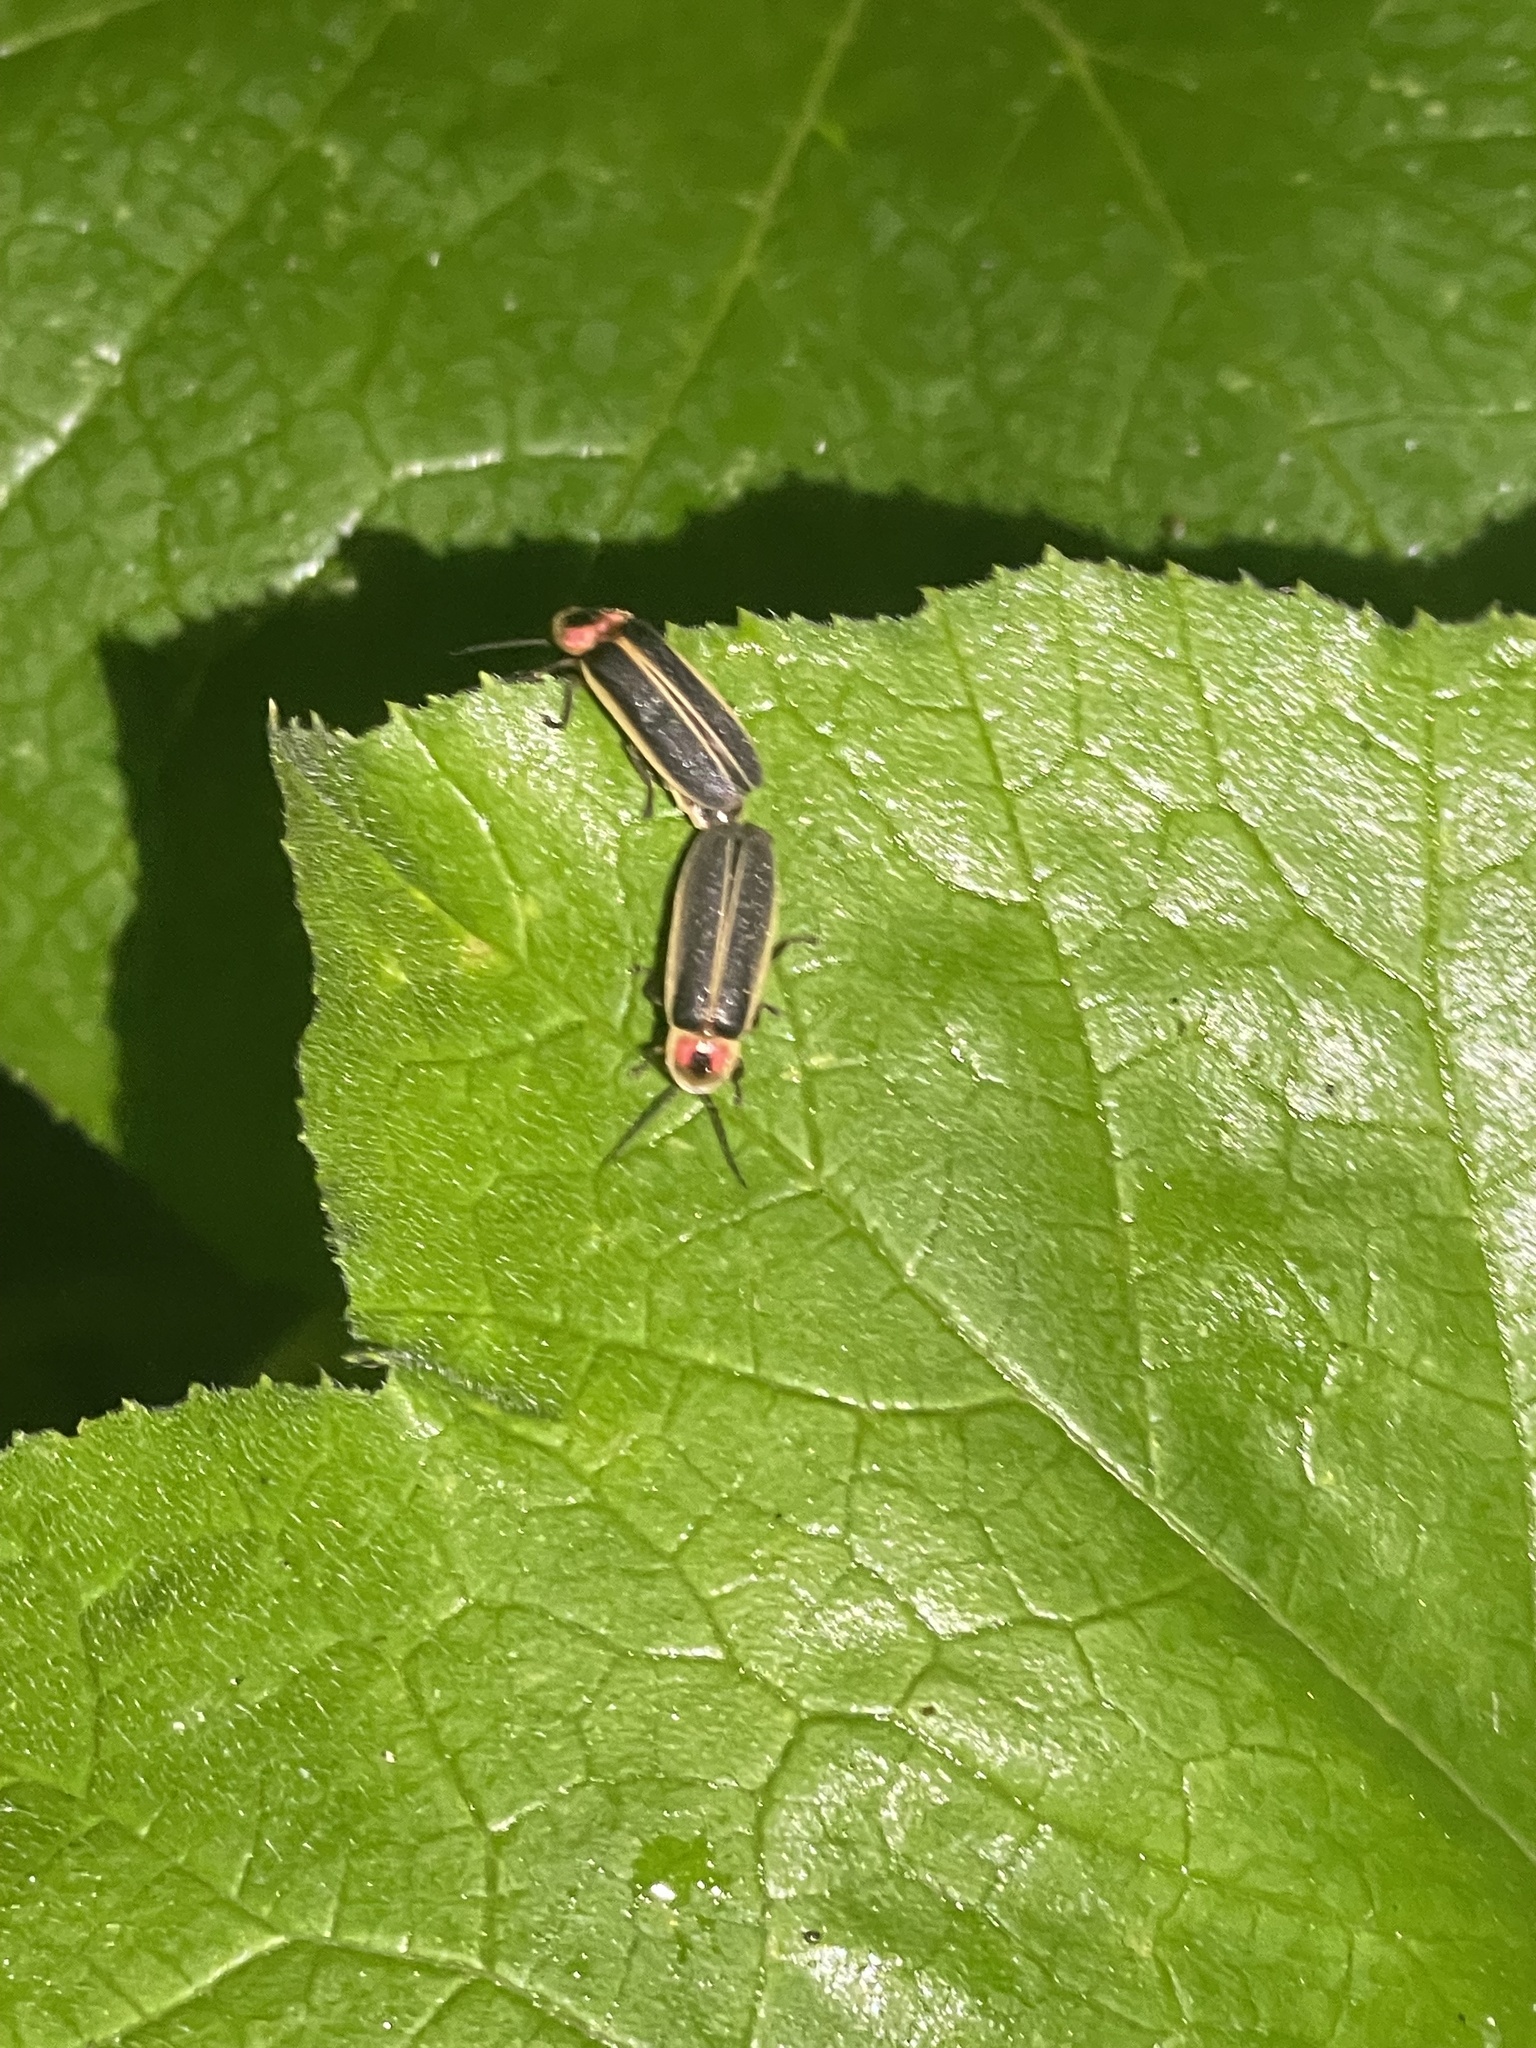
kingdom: Animalia
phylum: Arthropoda
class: Insecta
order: Coleoptera
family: Lampyridae
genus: Photinus
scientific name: Photinus pyralis
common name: Big dipper firefly
